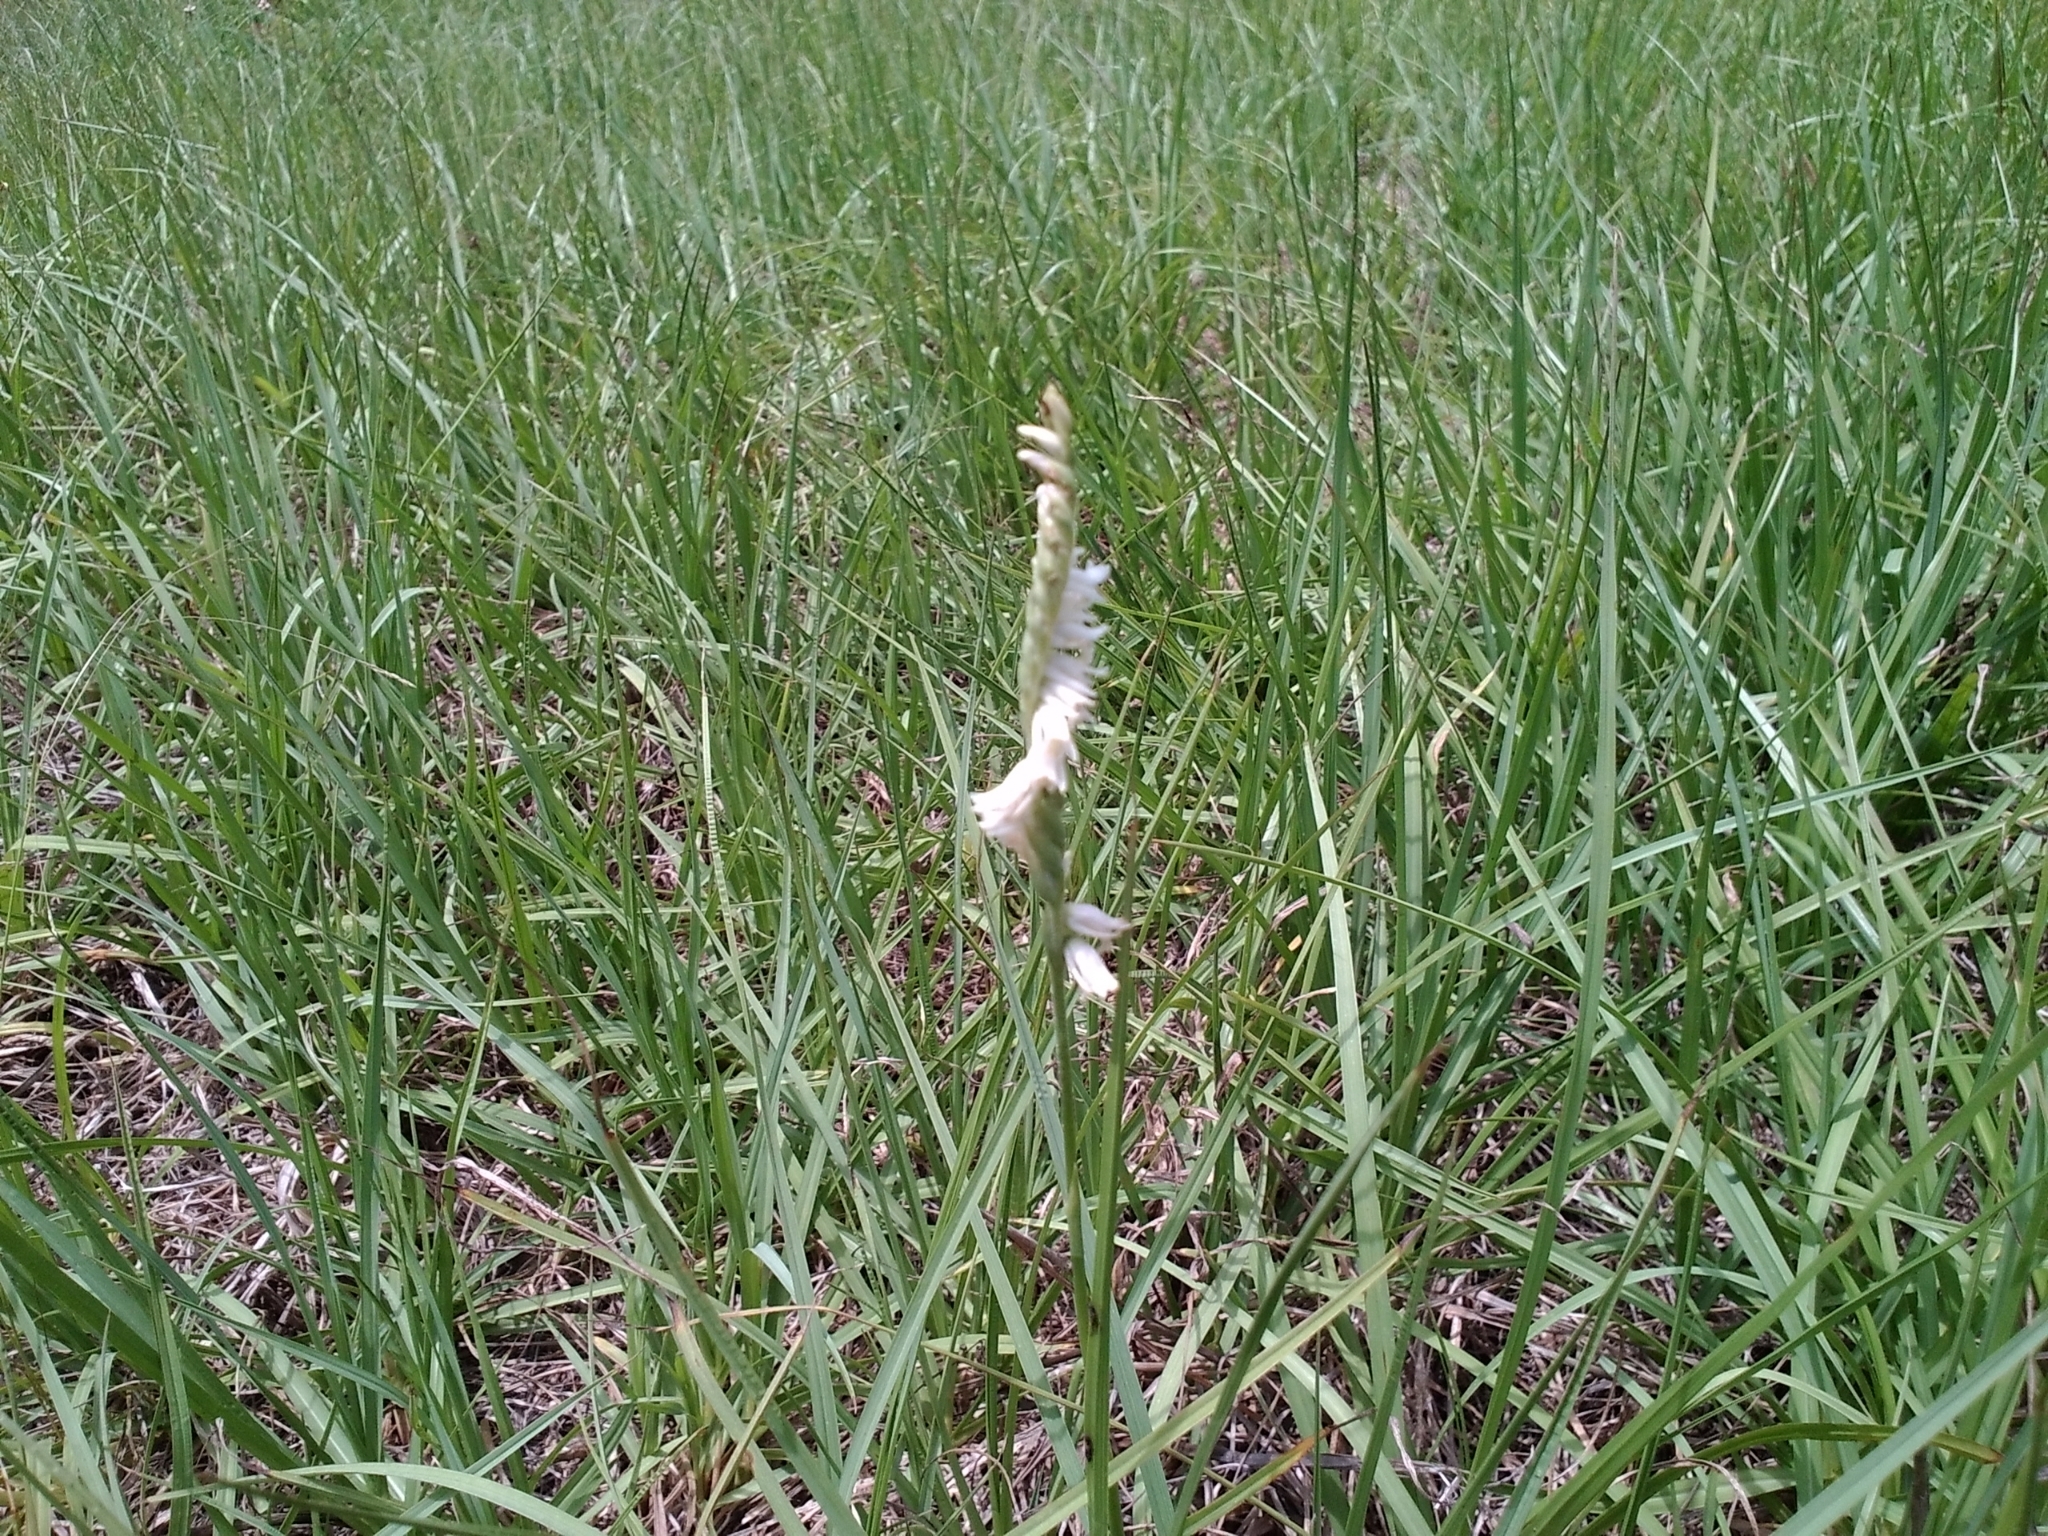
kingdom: Plantae
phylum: Tracheophyta
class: Liliopsida
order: Asparagales
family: Orchidaceae
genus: Spiranthes
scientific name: Spiranthes vernalis
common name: Spring ladies'-tresses
